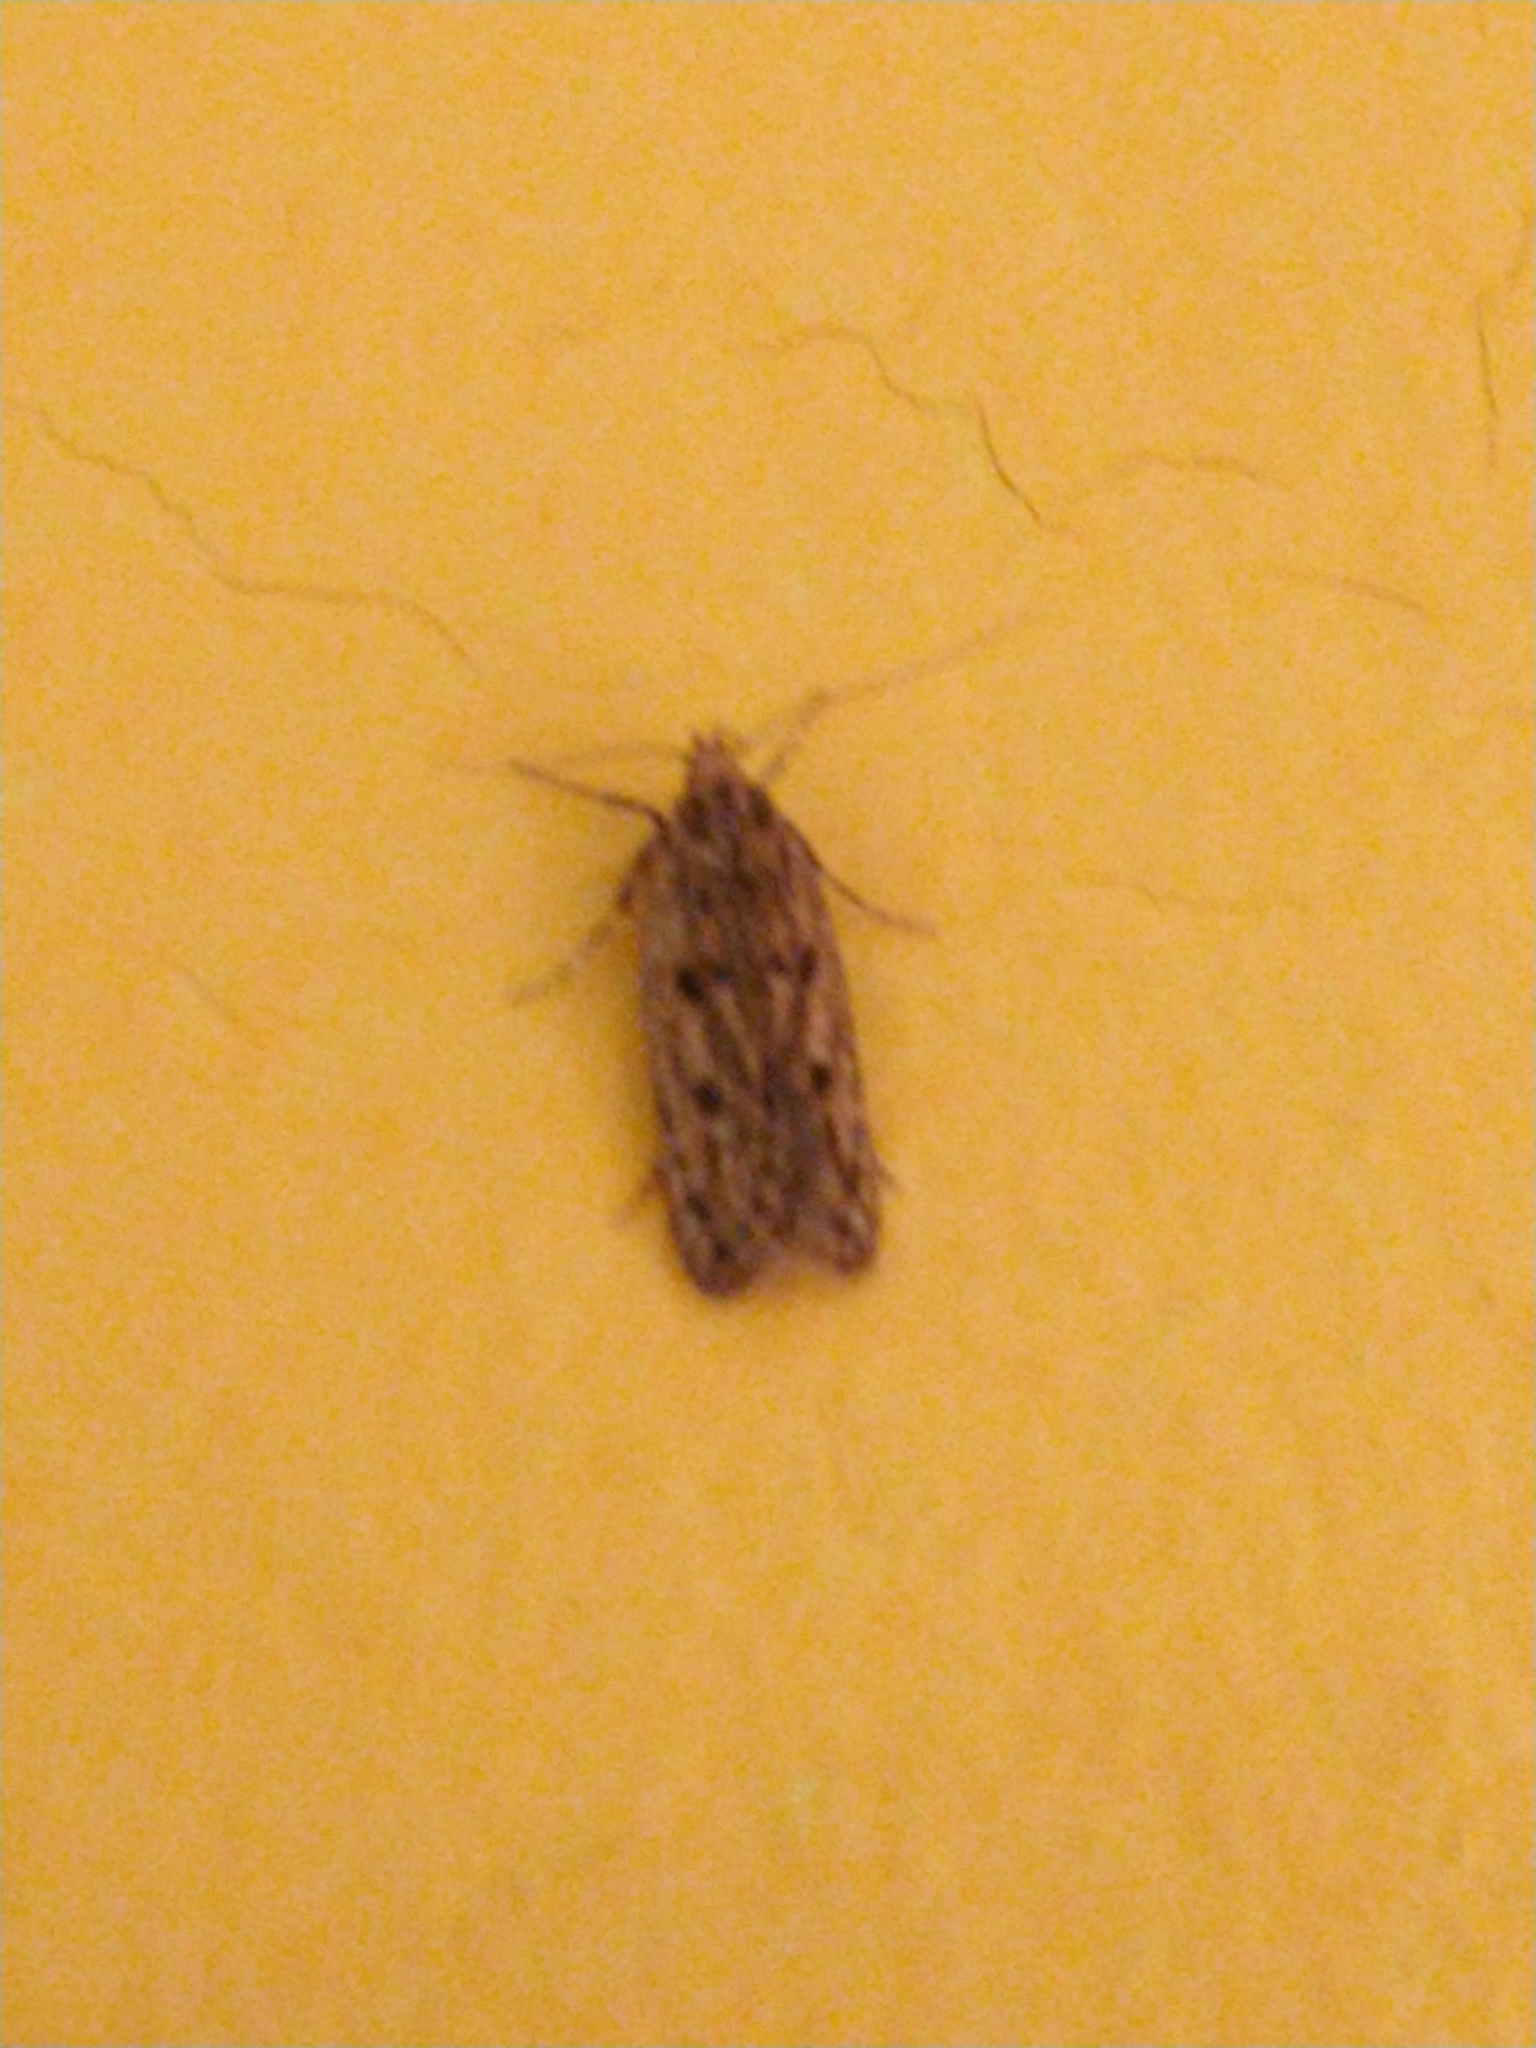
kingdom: Animalia
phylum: Arthropoda
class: Insecta
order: Lepidoptera
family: Oecophoridae
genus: Hofmannophila
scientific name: Hofmannophila pseudospretella
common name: Brown house moth
